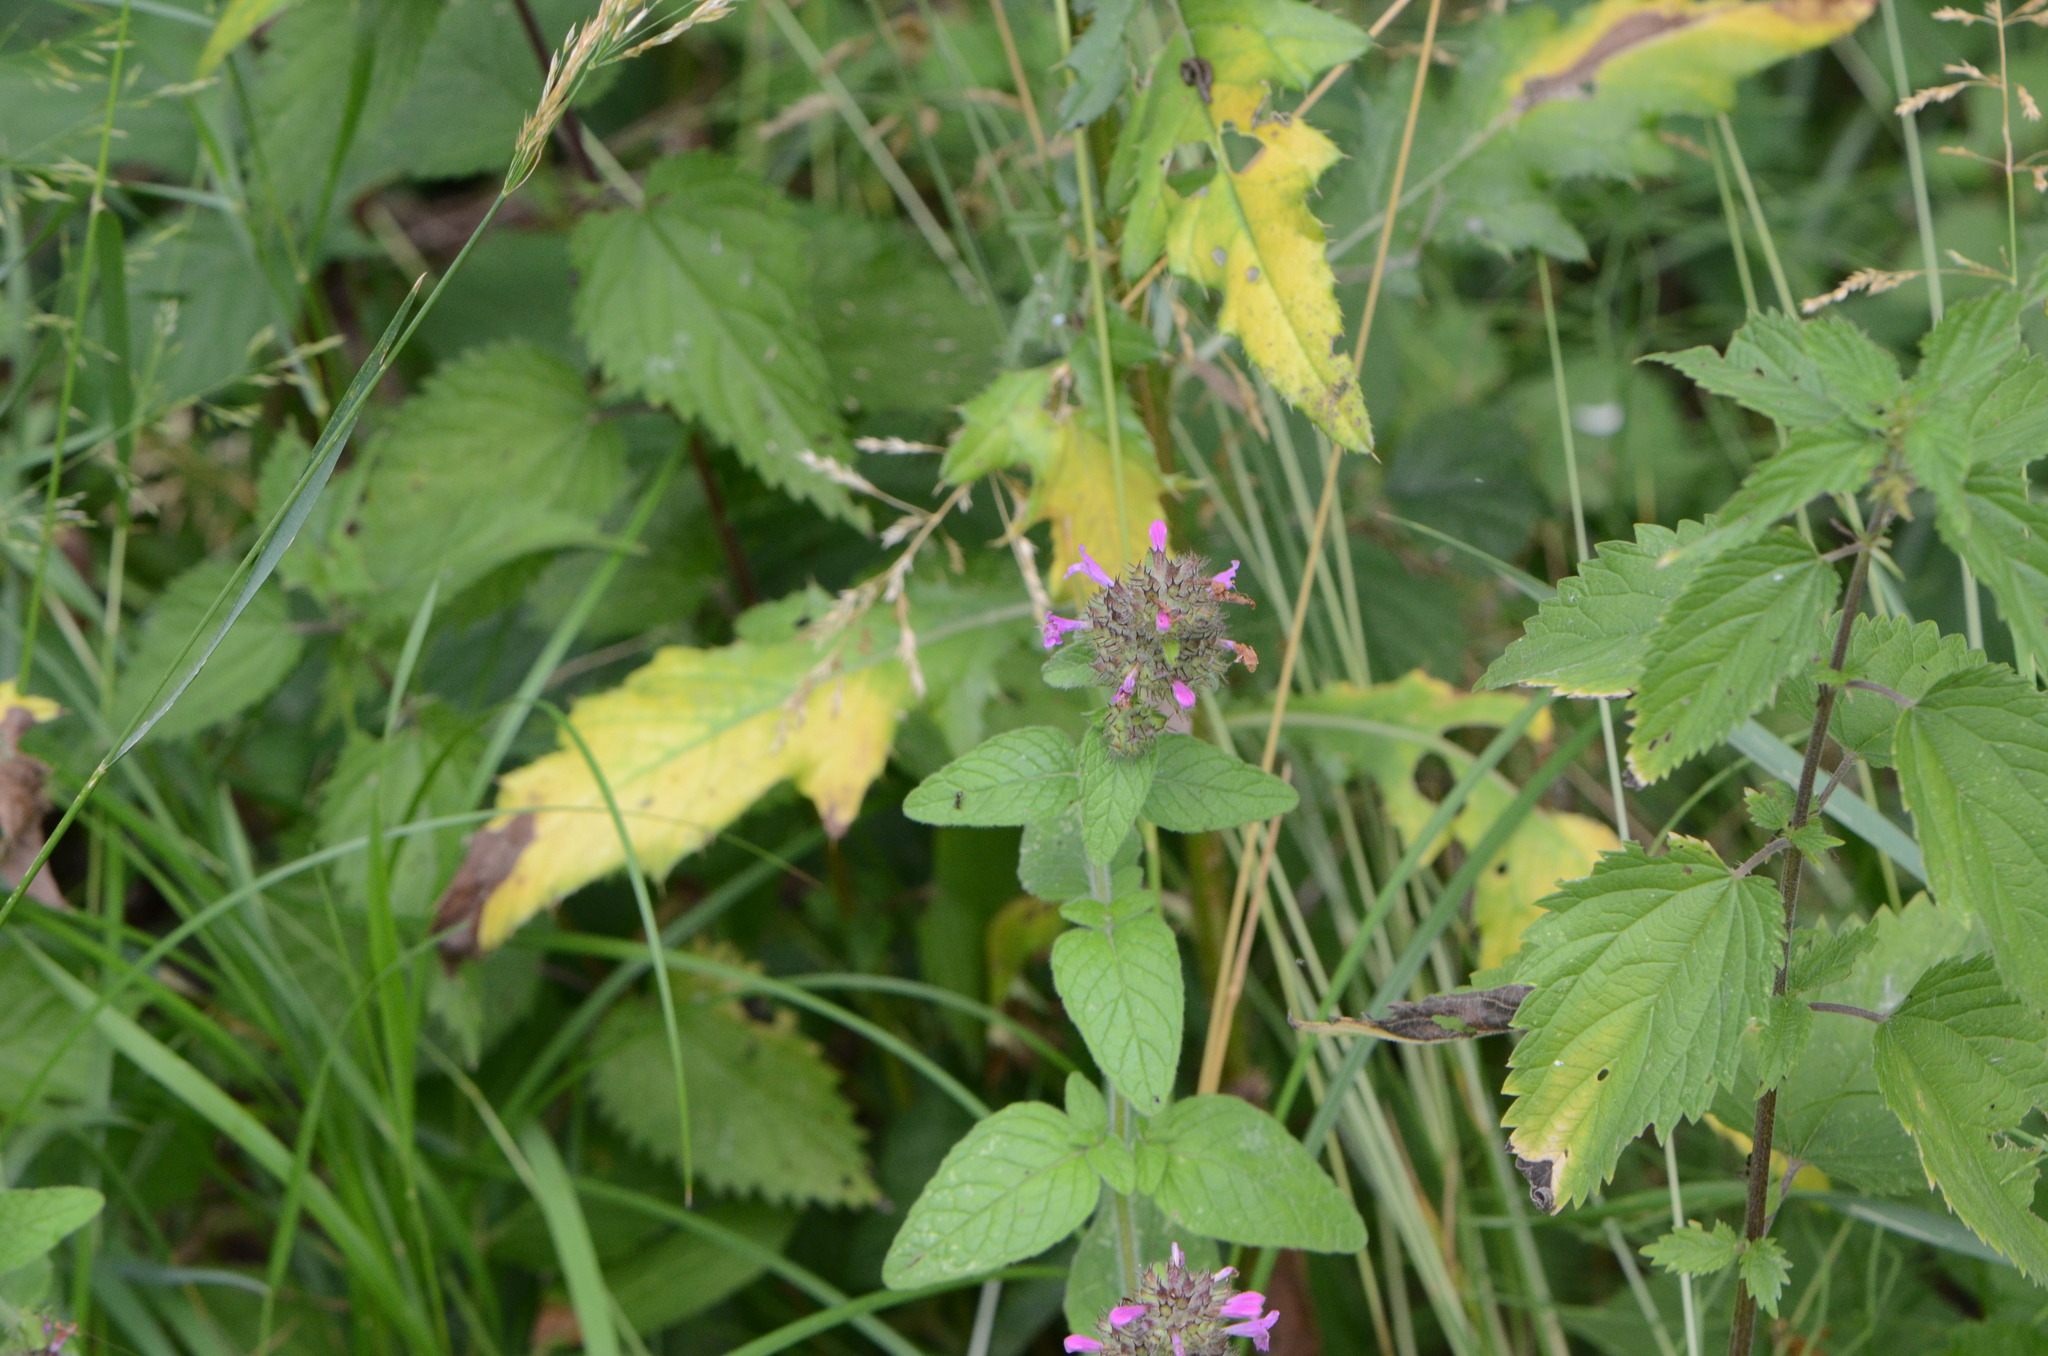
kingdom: Plantae
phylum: Tracheophyta
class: Magnoliopsida
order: Lamiales
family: Lamiaceae
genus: Clinopodium
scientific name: Clinopodium vulgare
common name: Wild basil
